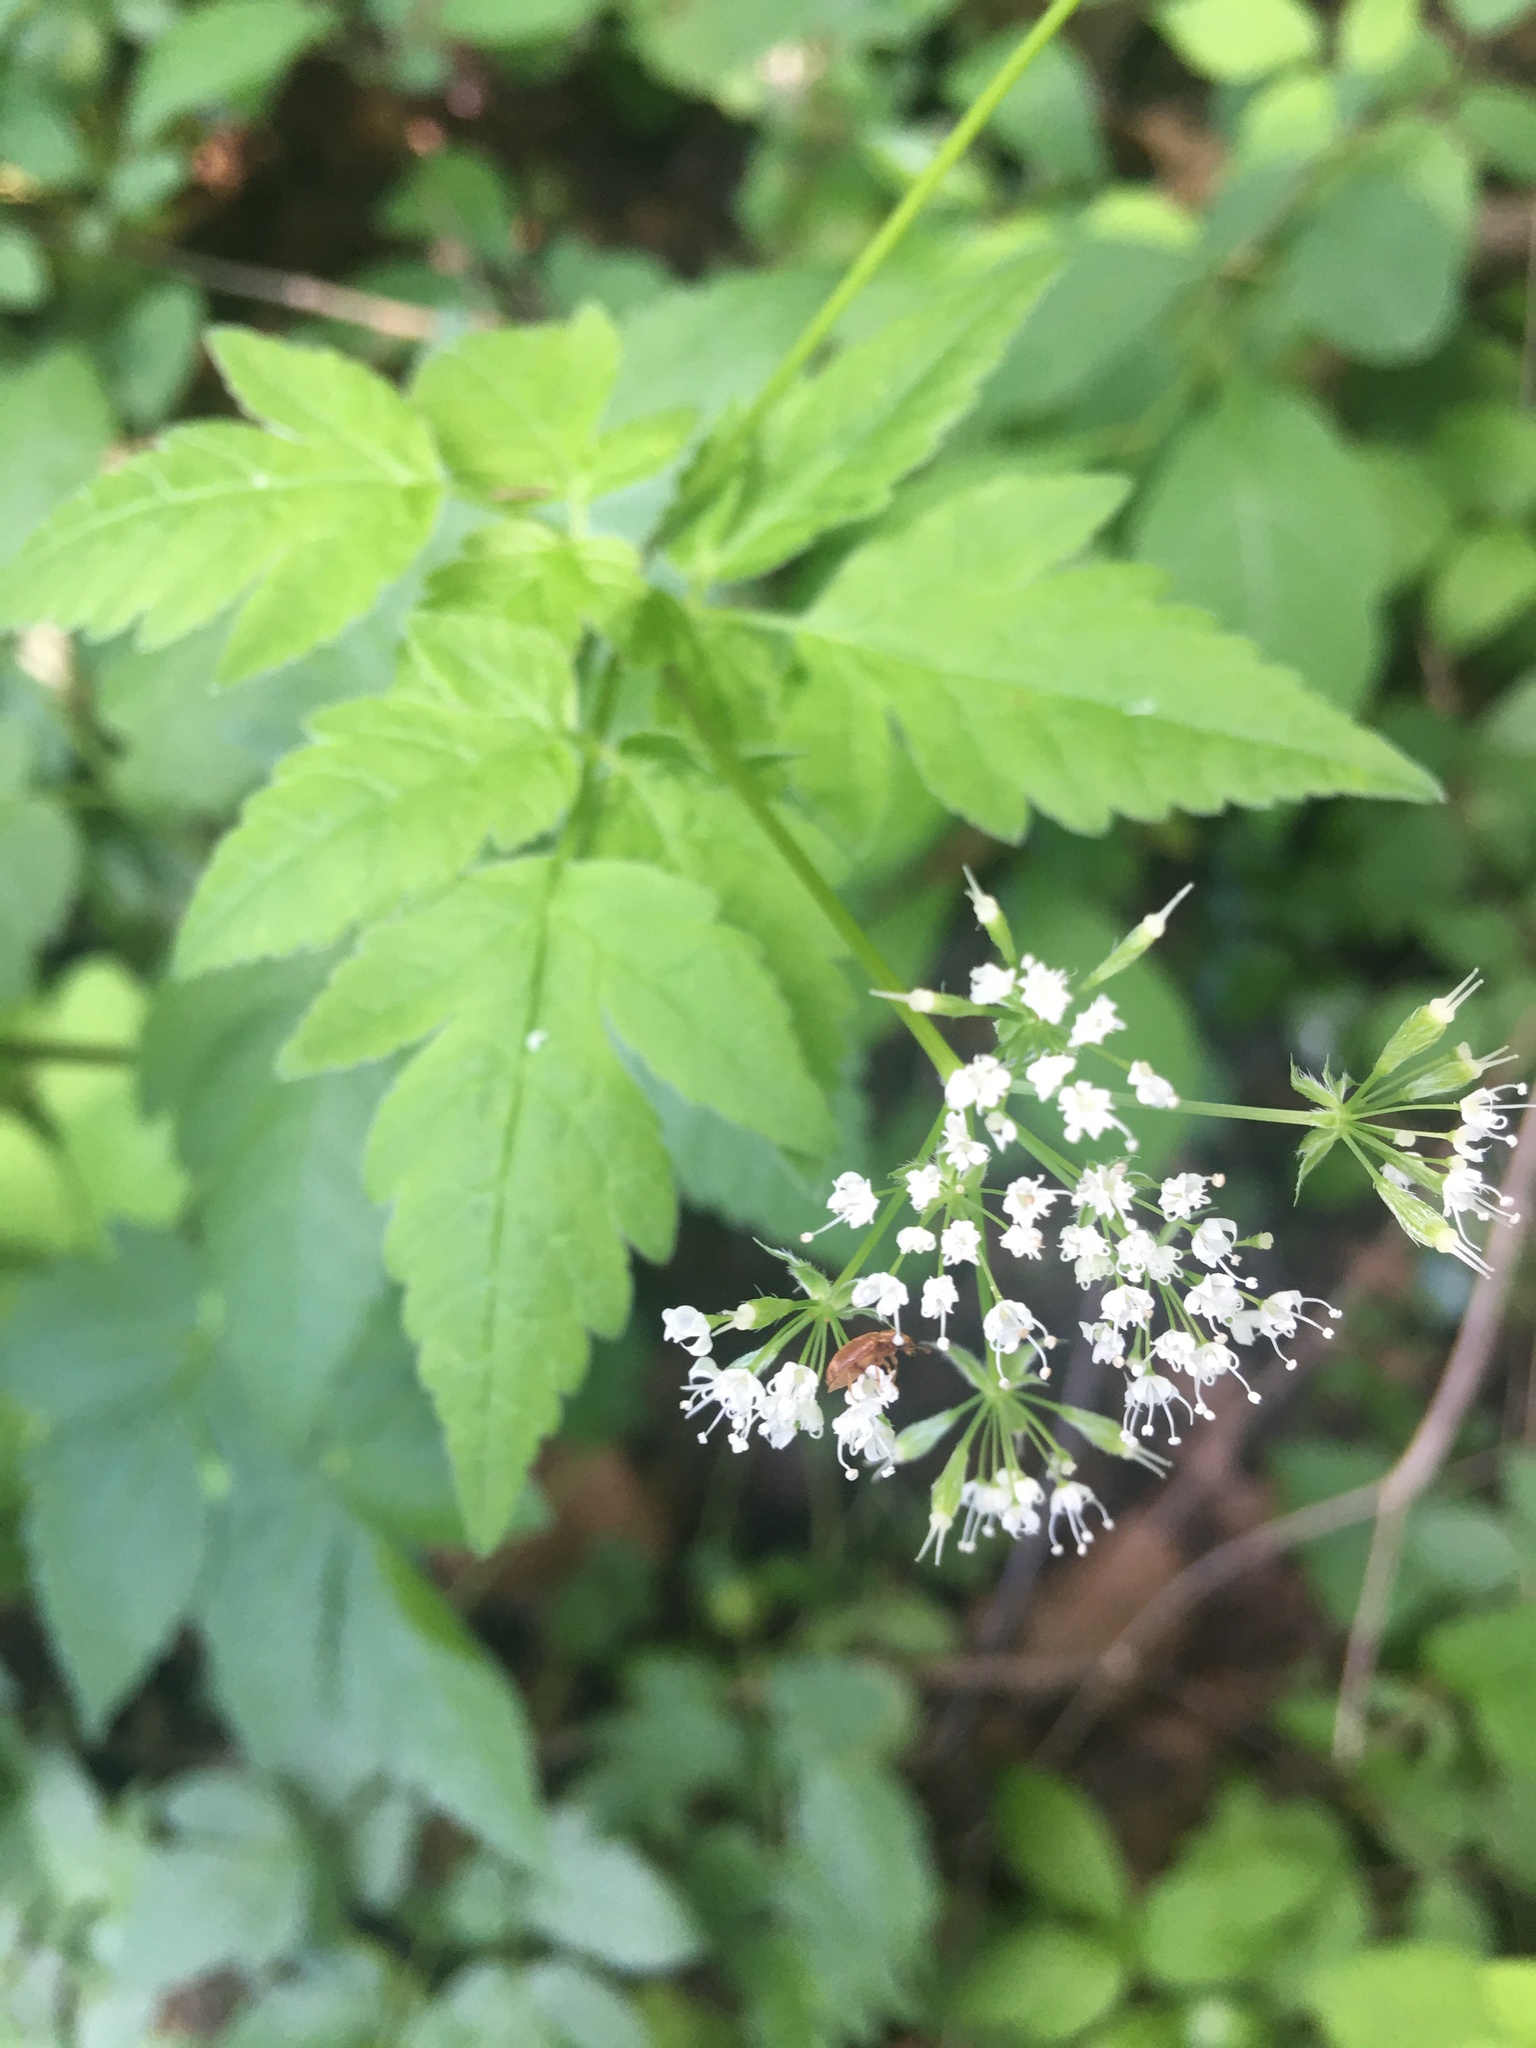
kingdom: Plantae
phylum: Tracheophyta
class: Magnoliopsida
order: Apiales
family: Apiaceae
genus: Osmorhiza
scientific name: Osmorhiza longistylis
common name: Smooth sweet cicely
